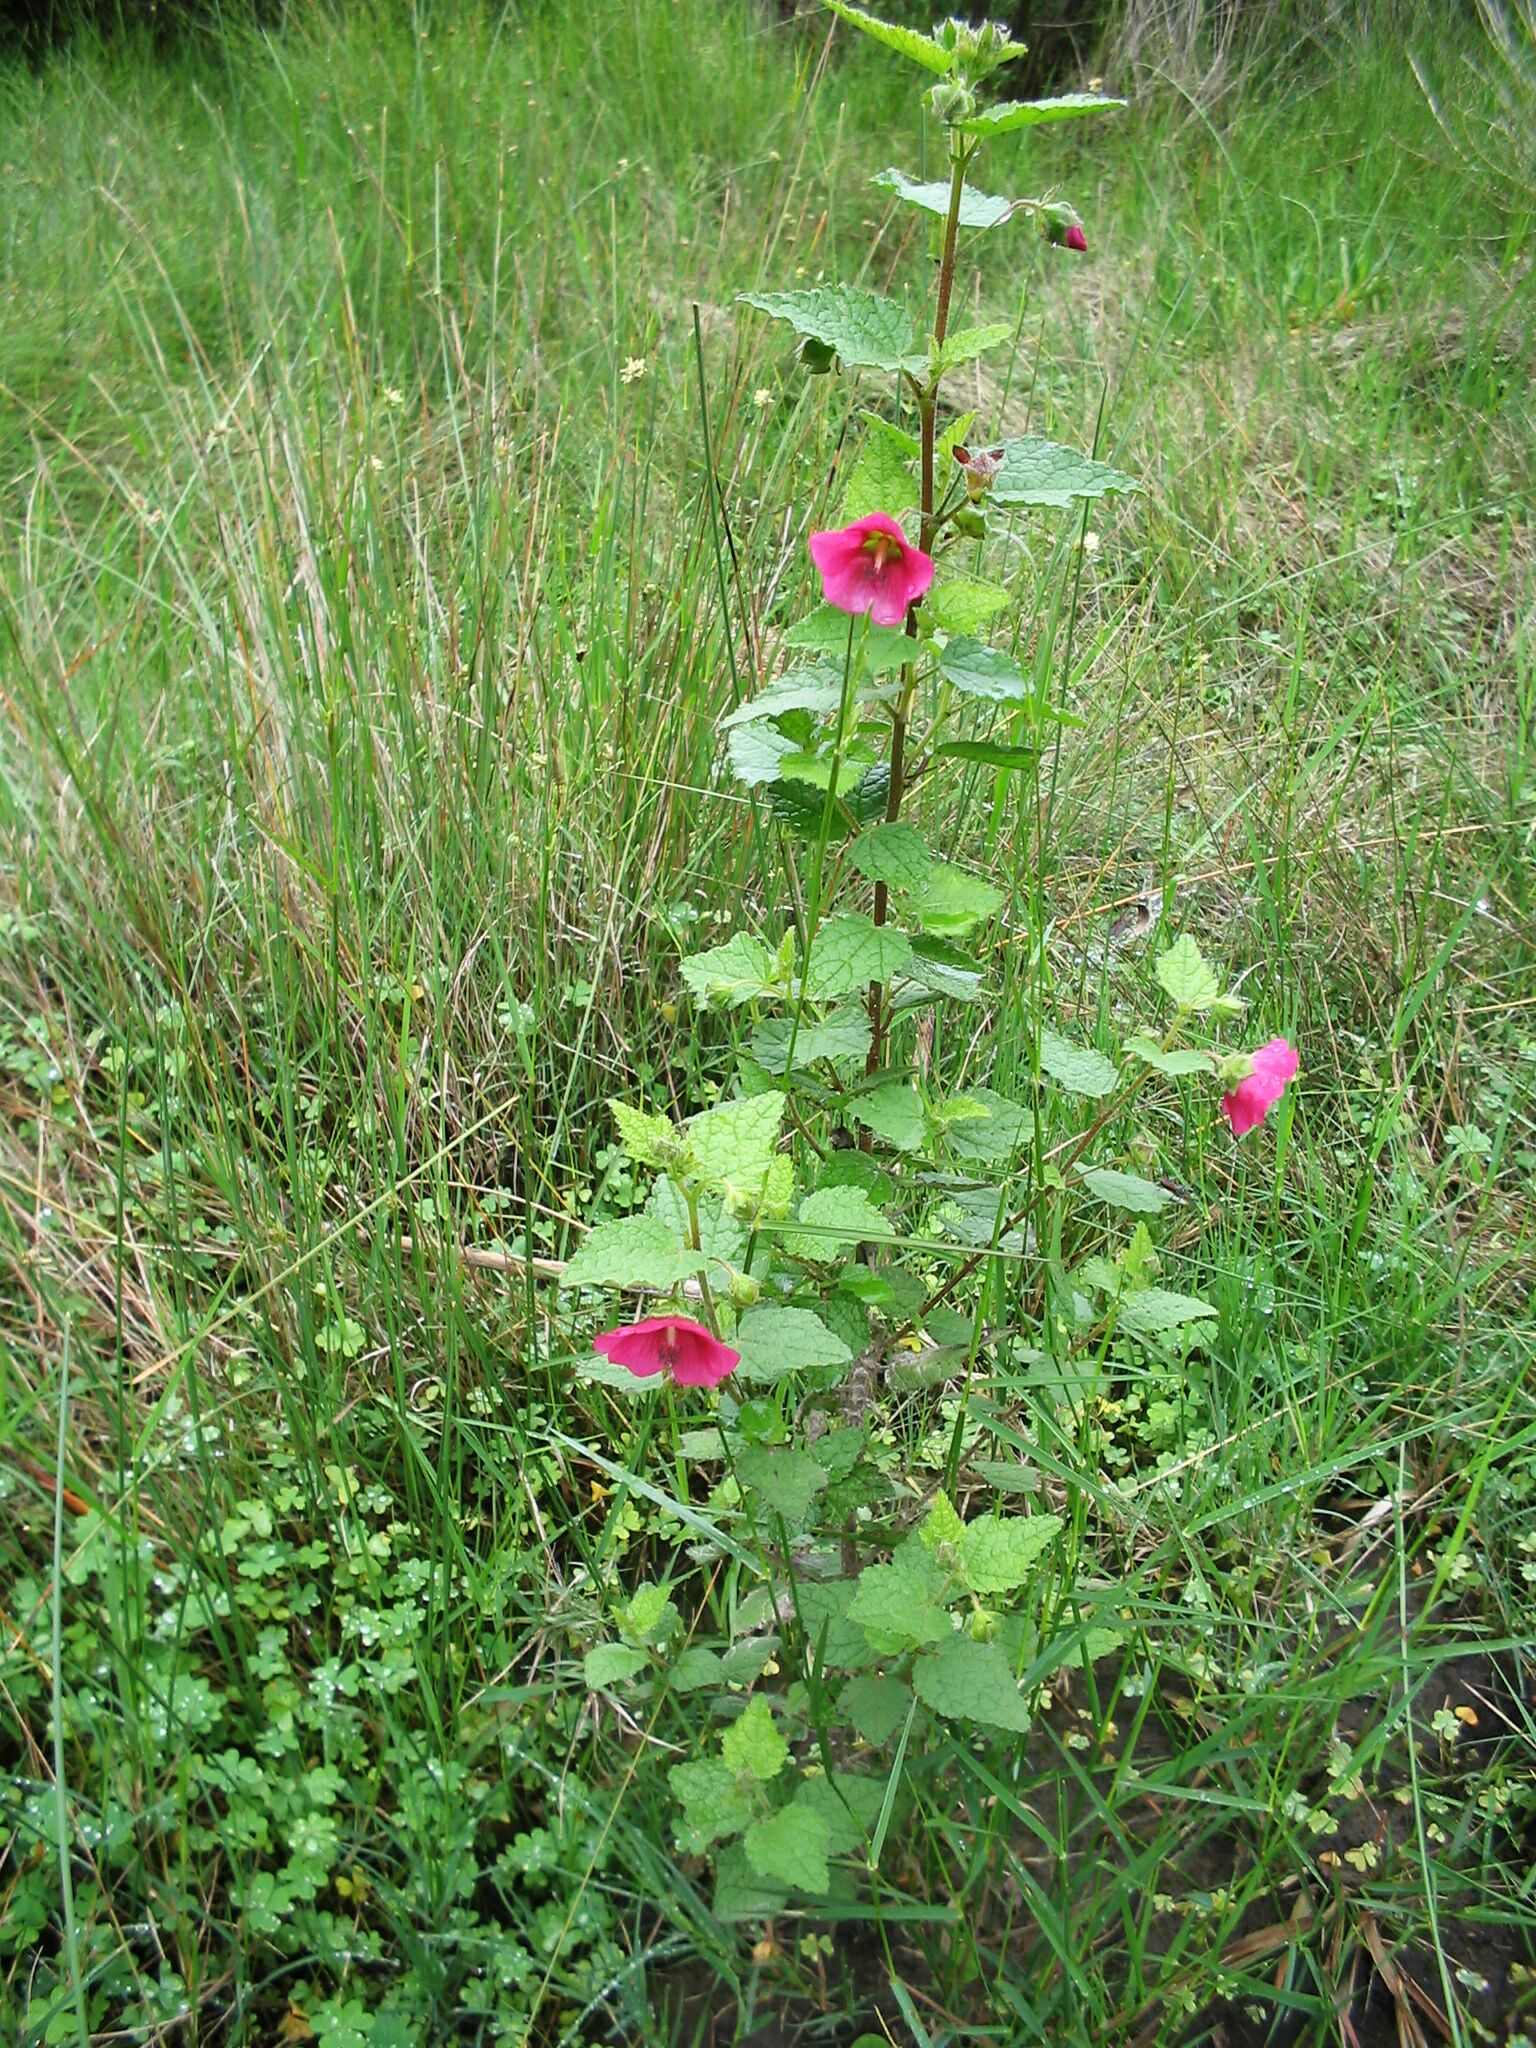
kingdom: Plantae
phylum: Tracheophyta
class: Magnoliopsida
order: Malvales
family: Malvaceae
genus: Anisodontea
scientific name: Anisodontea scabrosa
